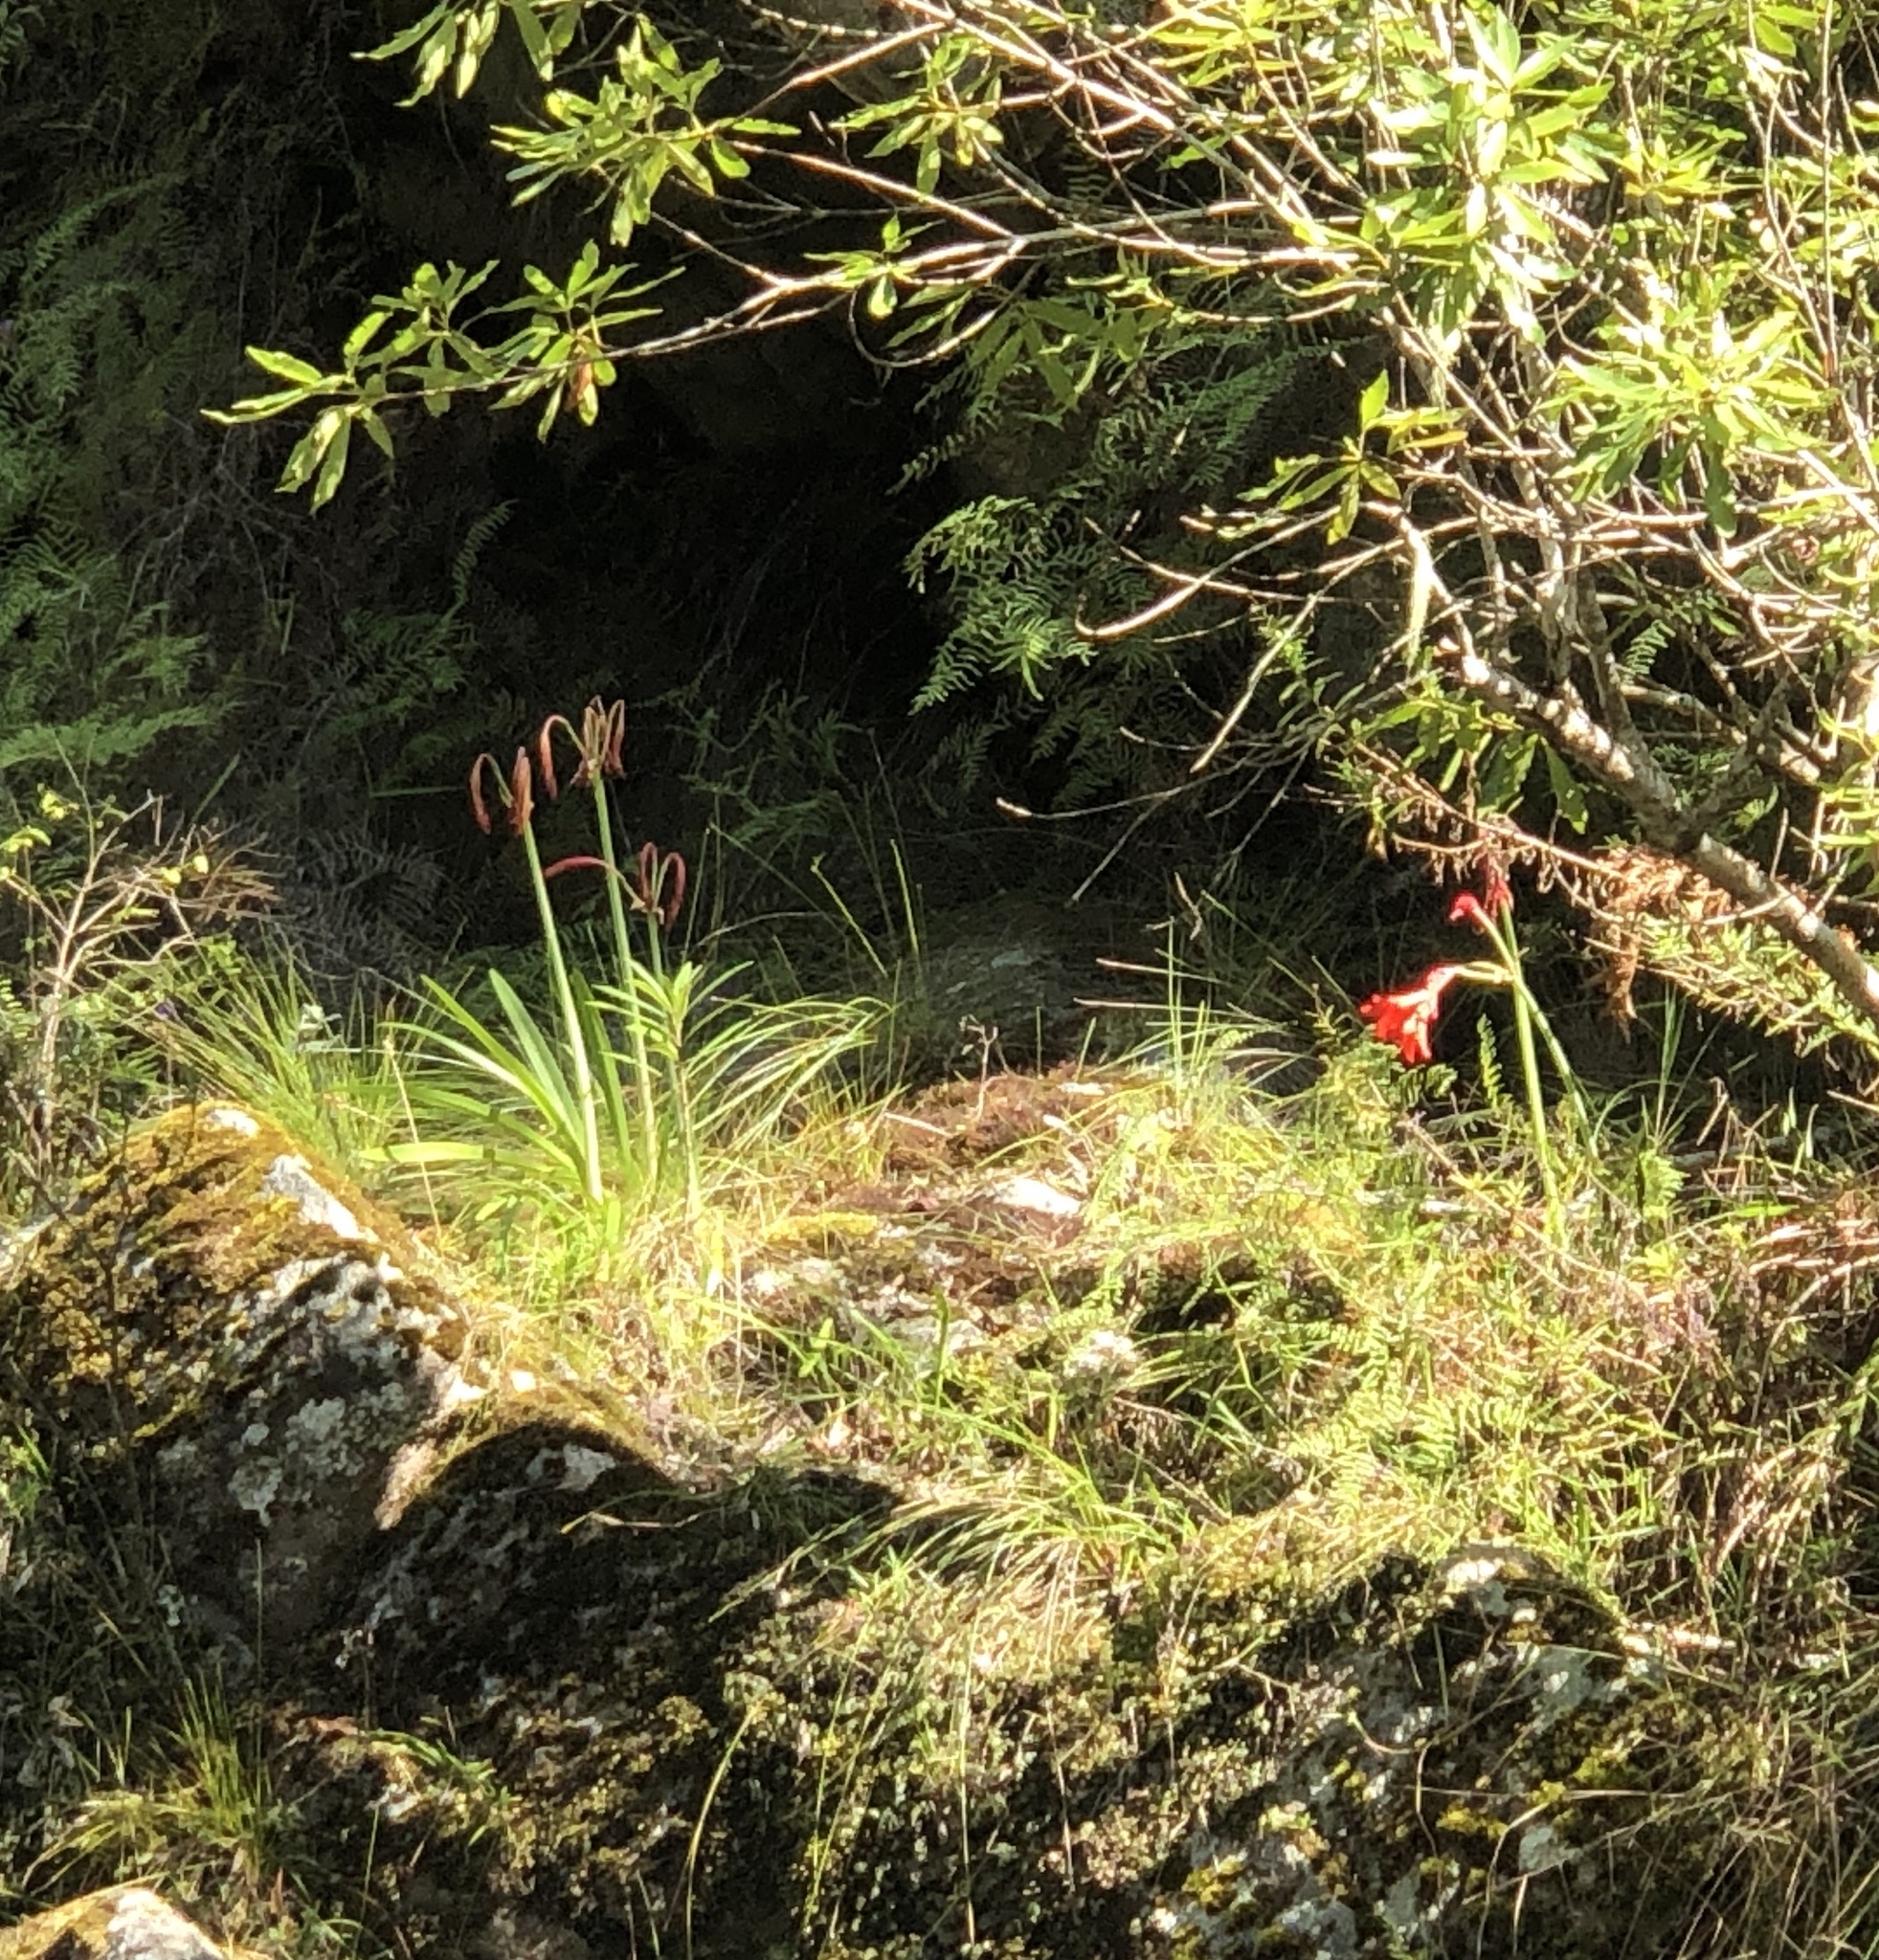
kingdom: Plantae
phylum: Tracheophyta
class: Liliopsida
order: Asparagales
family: Amaryllidaceae
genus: Cyrtanthus
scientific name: Cyrtanthus elatus
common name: Scarborough-lily
